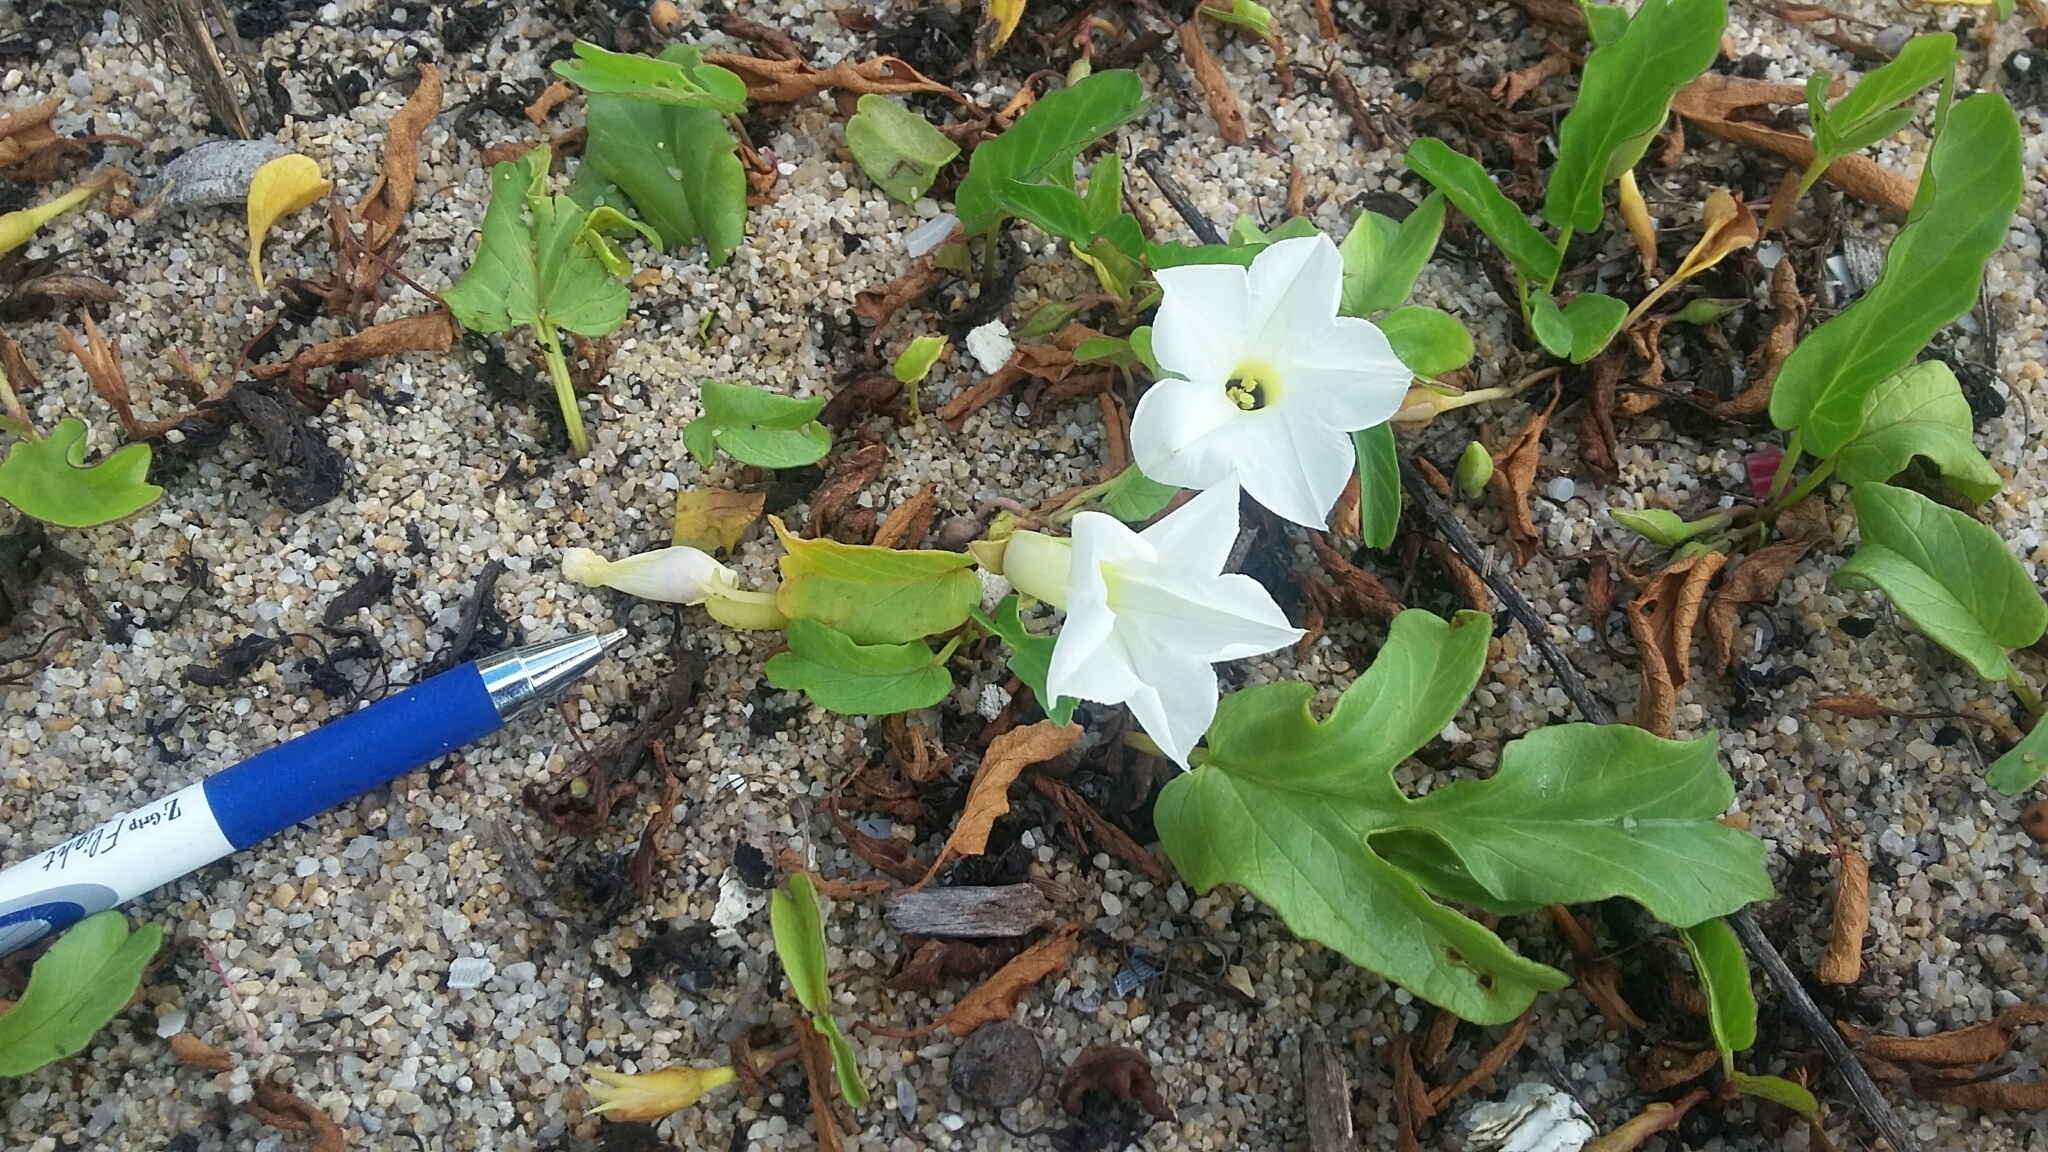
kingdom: Plantae
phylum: Tracheophyta
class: Magnoliopsida
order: Solanales
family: Convolvulaceae
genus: Ipomoea
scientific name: Ipomoea imperati
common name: Fiddle-leaf morning-glory
